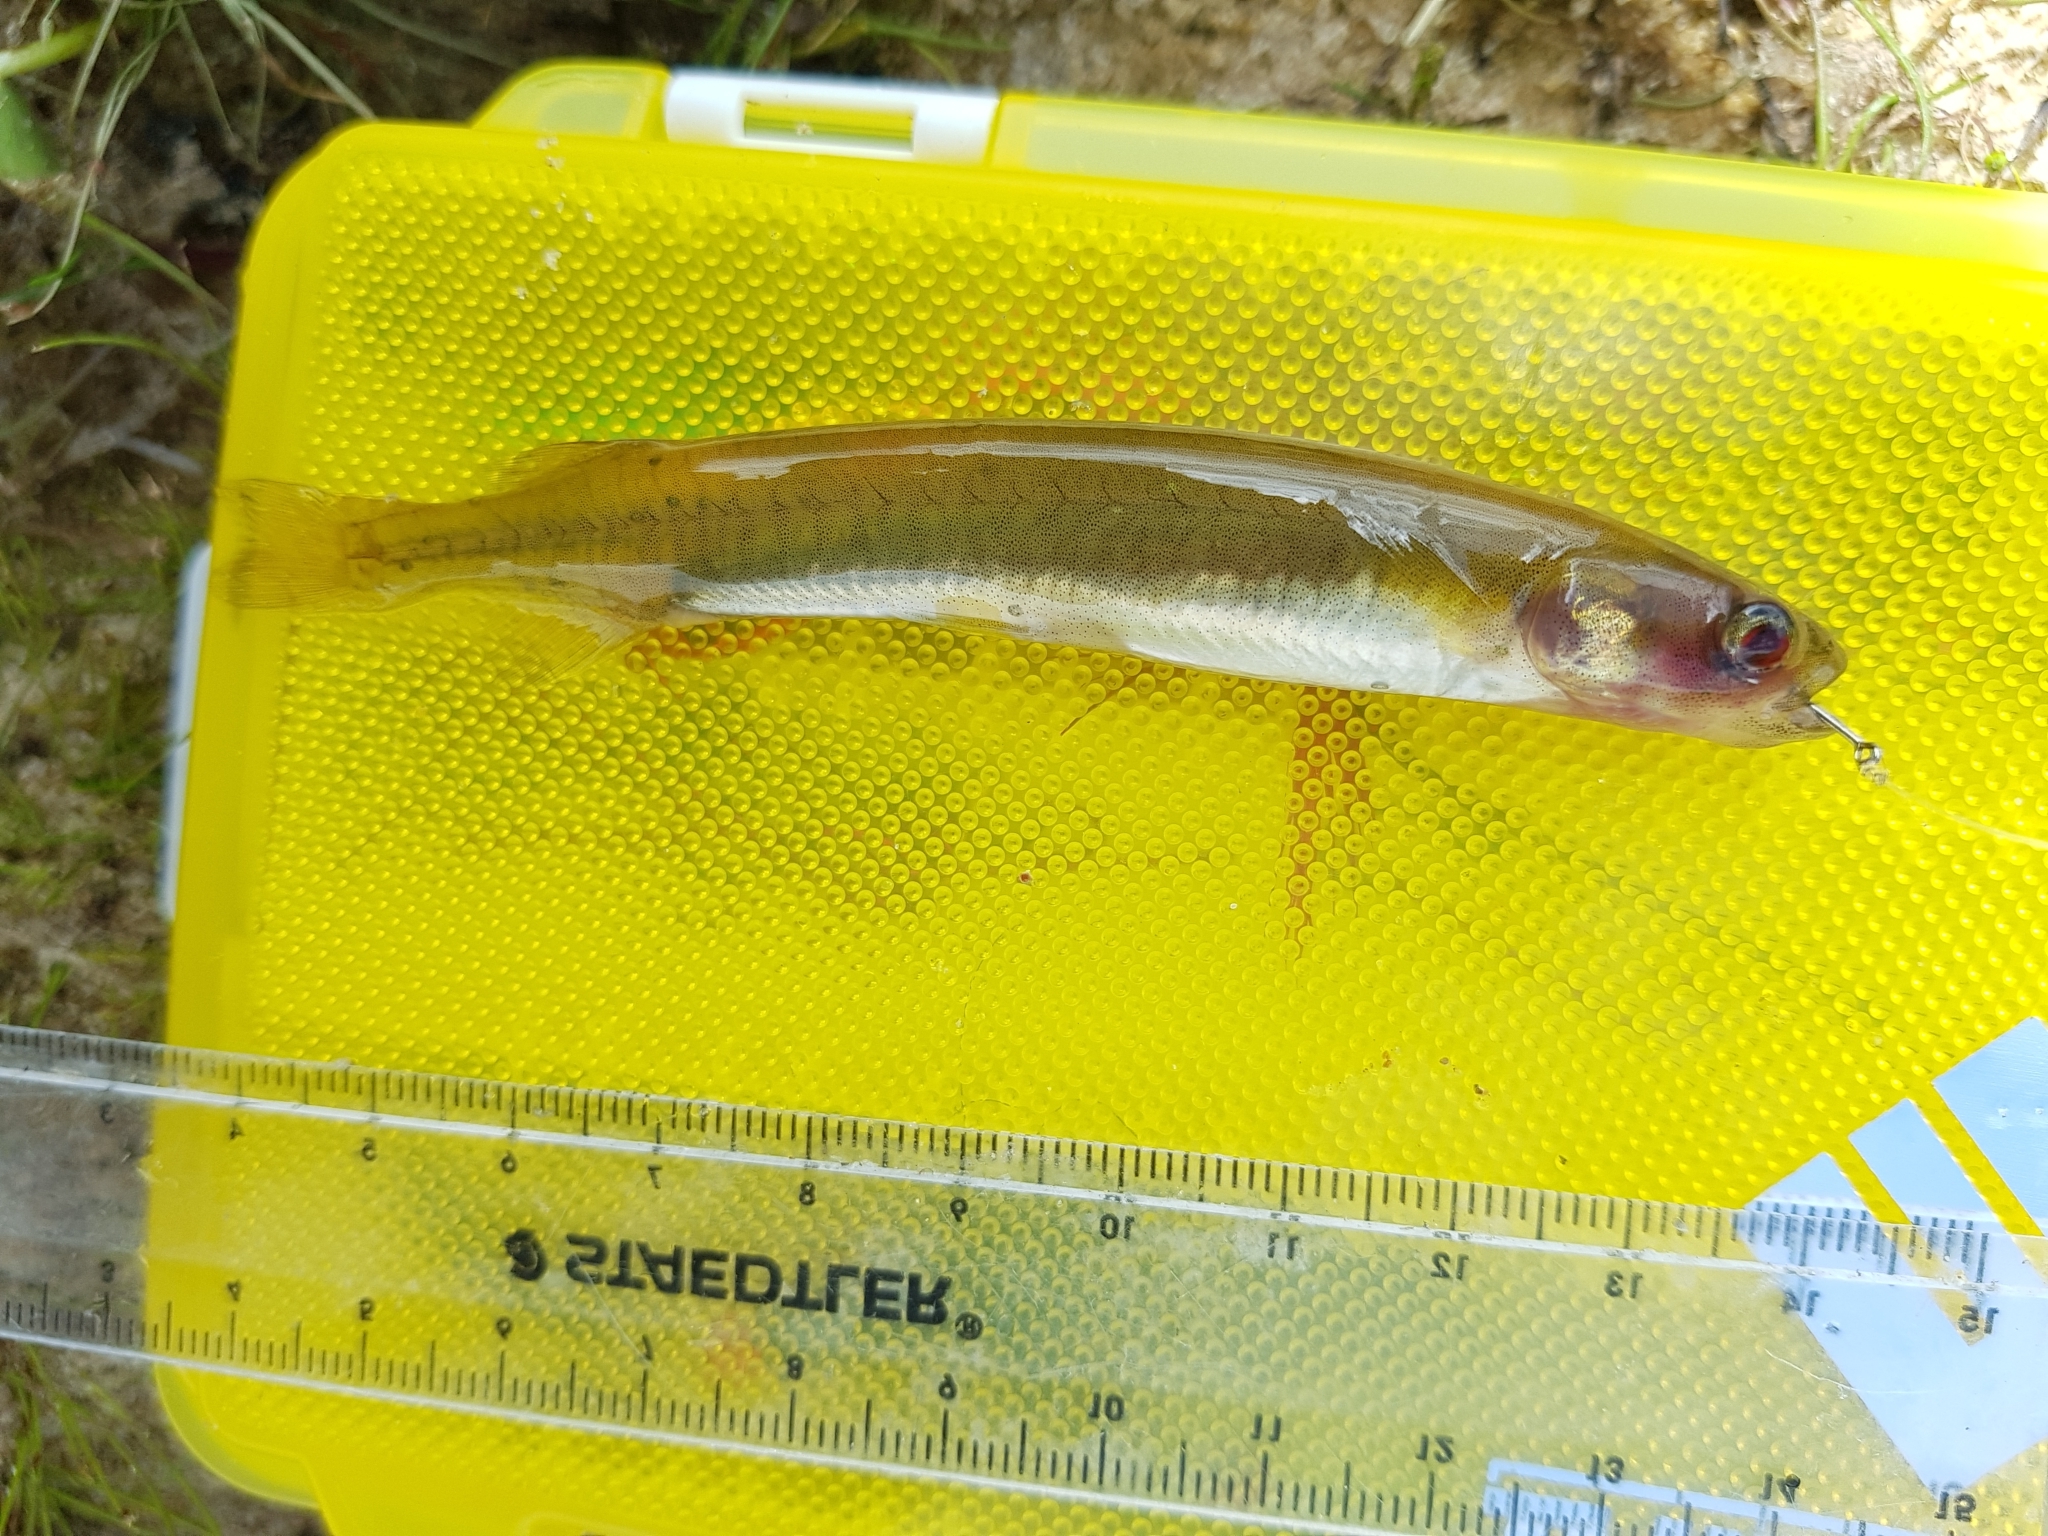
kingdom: Animalia
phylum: Chordata
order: Osmeriformes
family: Galaxiidae
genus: Galaxias
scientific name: Galaxias maculatus
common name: Common galaxias
